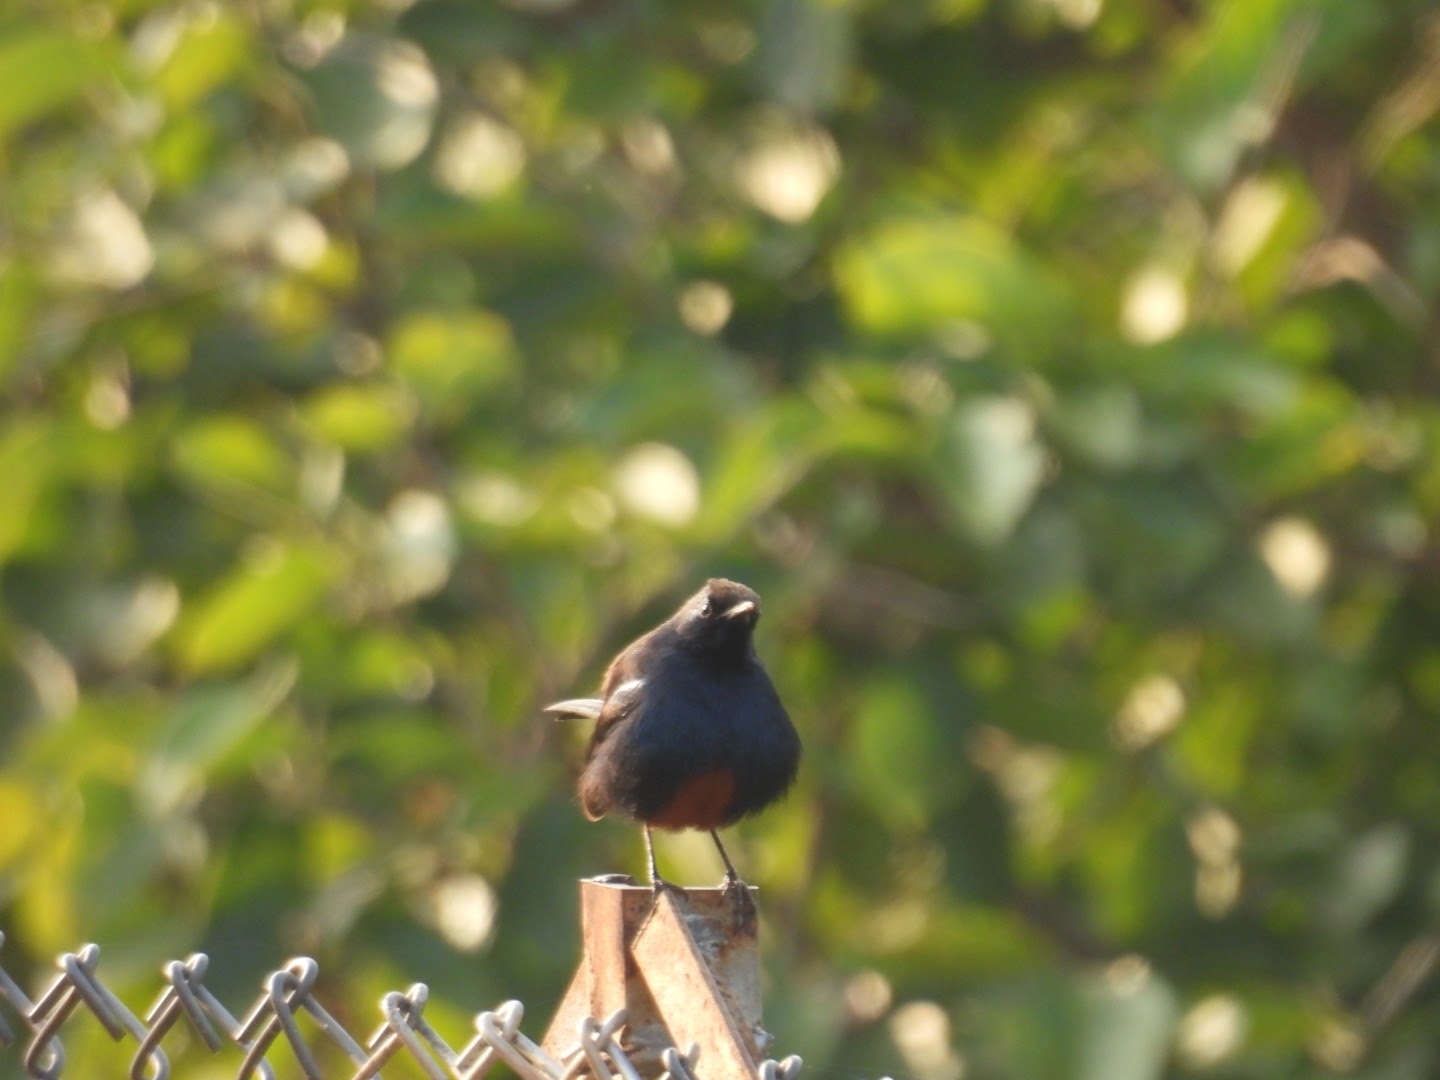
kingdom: Animalia
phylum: Chordata
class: Aves
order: Passeriformes
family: Muscicapidae
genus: Saxicoloides
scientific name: Saxicoloides fulicatus
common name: Indian robin
